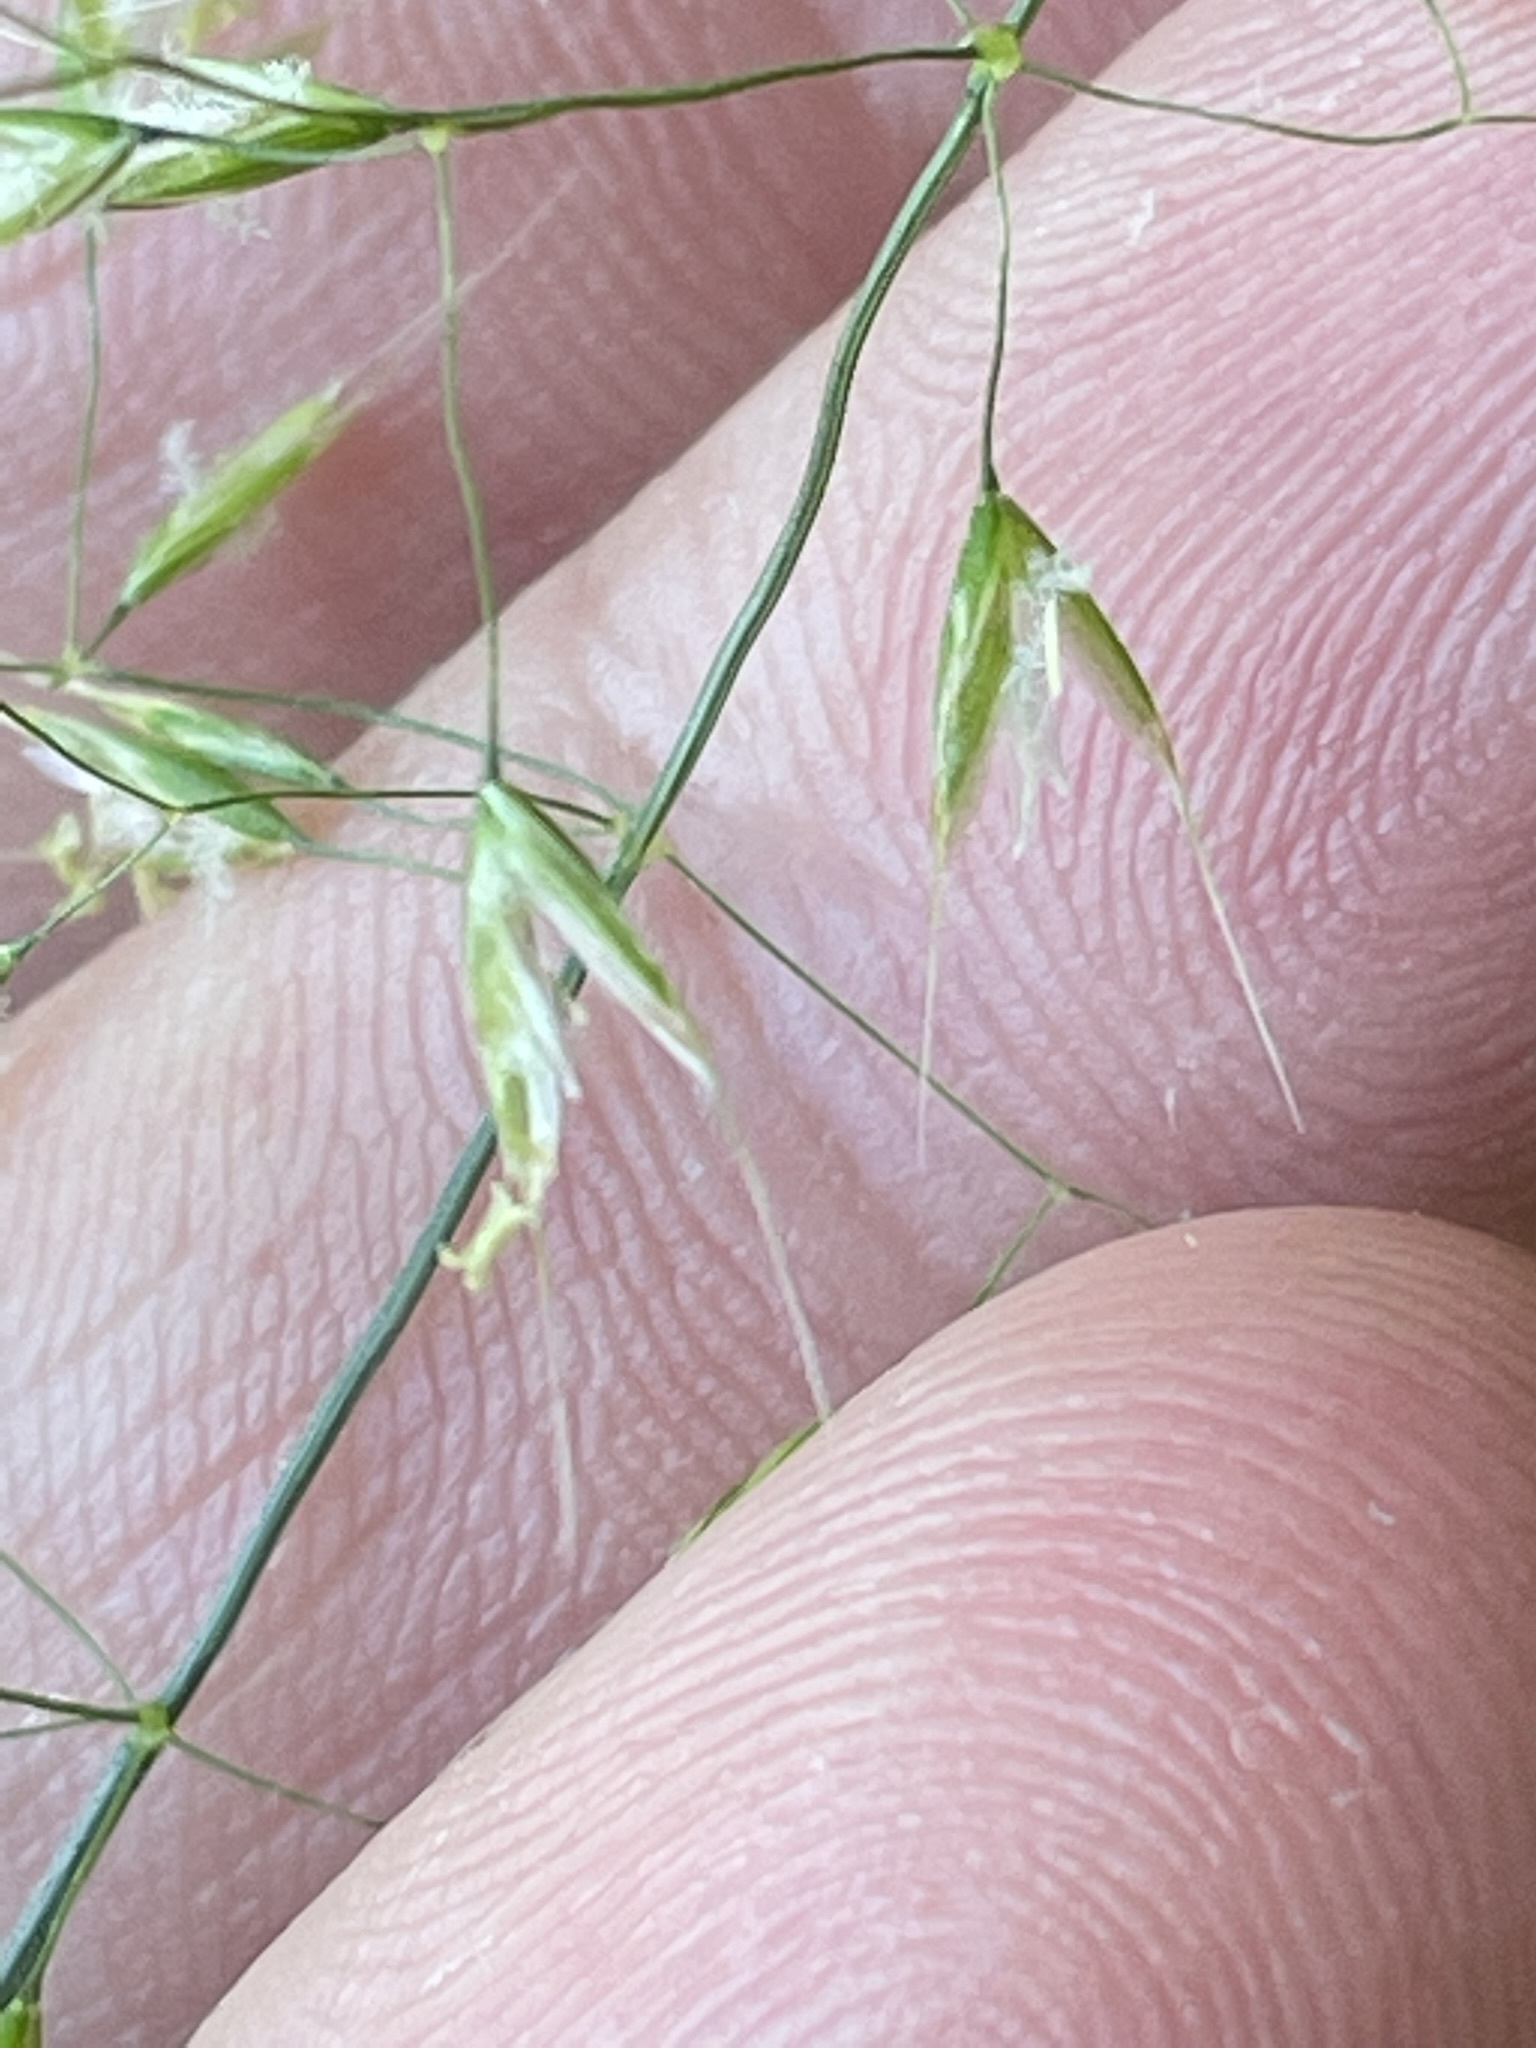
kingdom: Plantae
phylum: Tracheophyta
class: Liliopsida
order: Poales
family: Poaceae
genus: Trisetum
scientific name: Trisetum flavescens
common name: Yellow oat-grass
